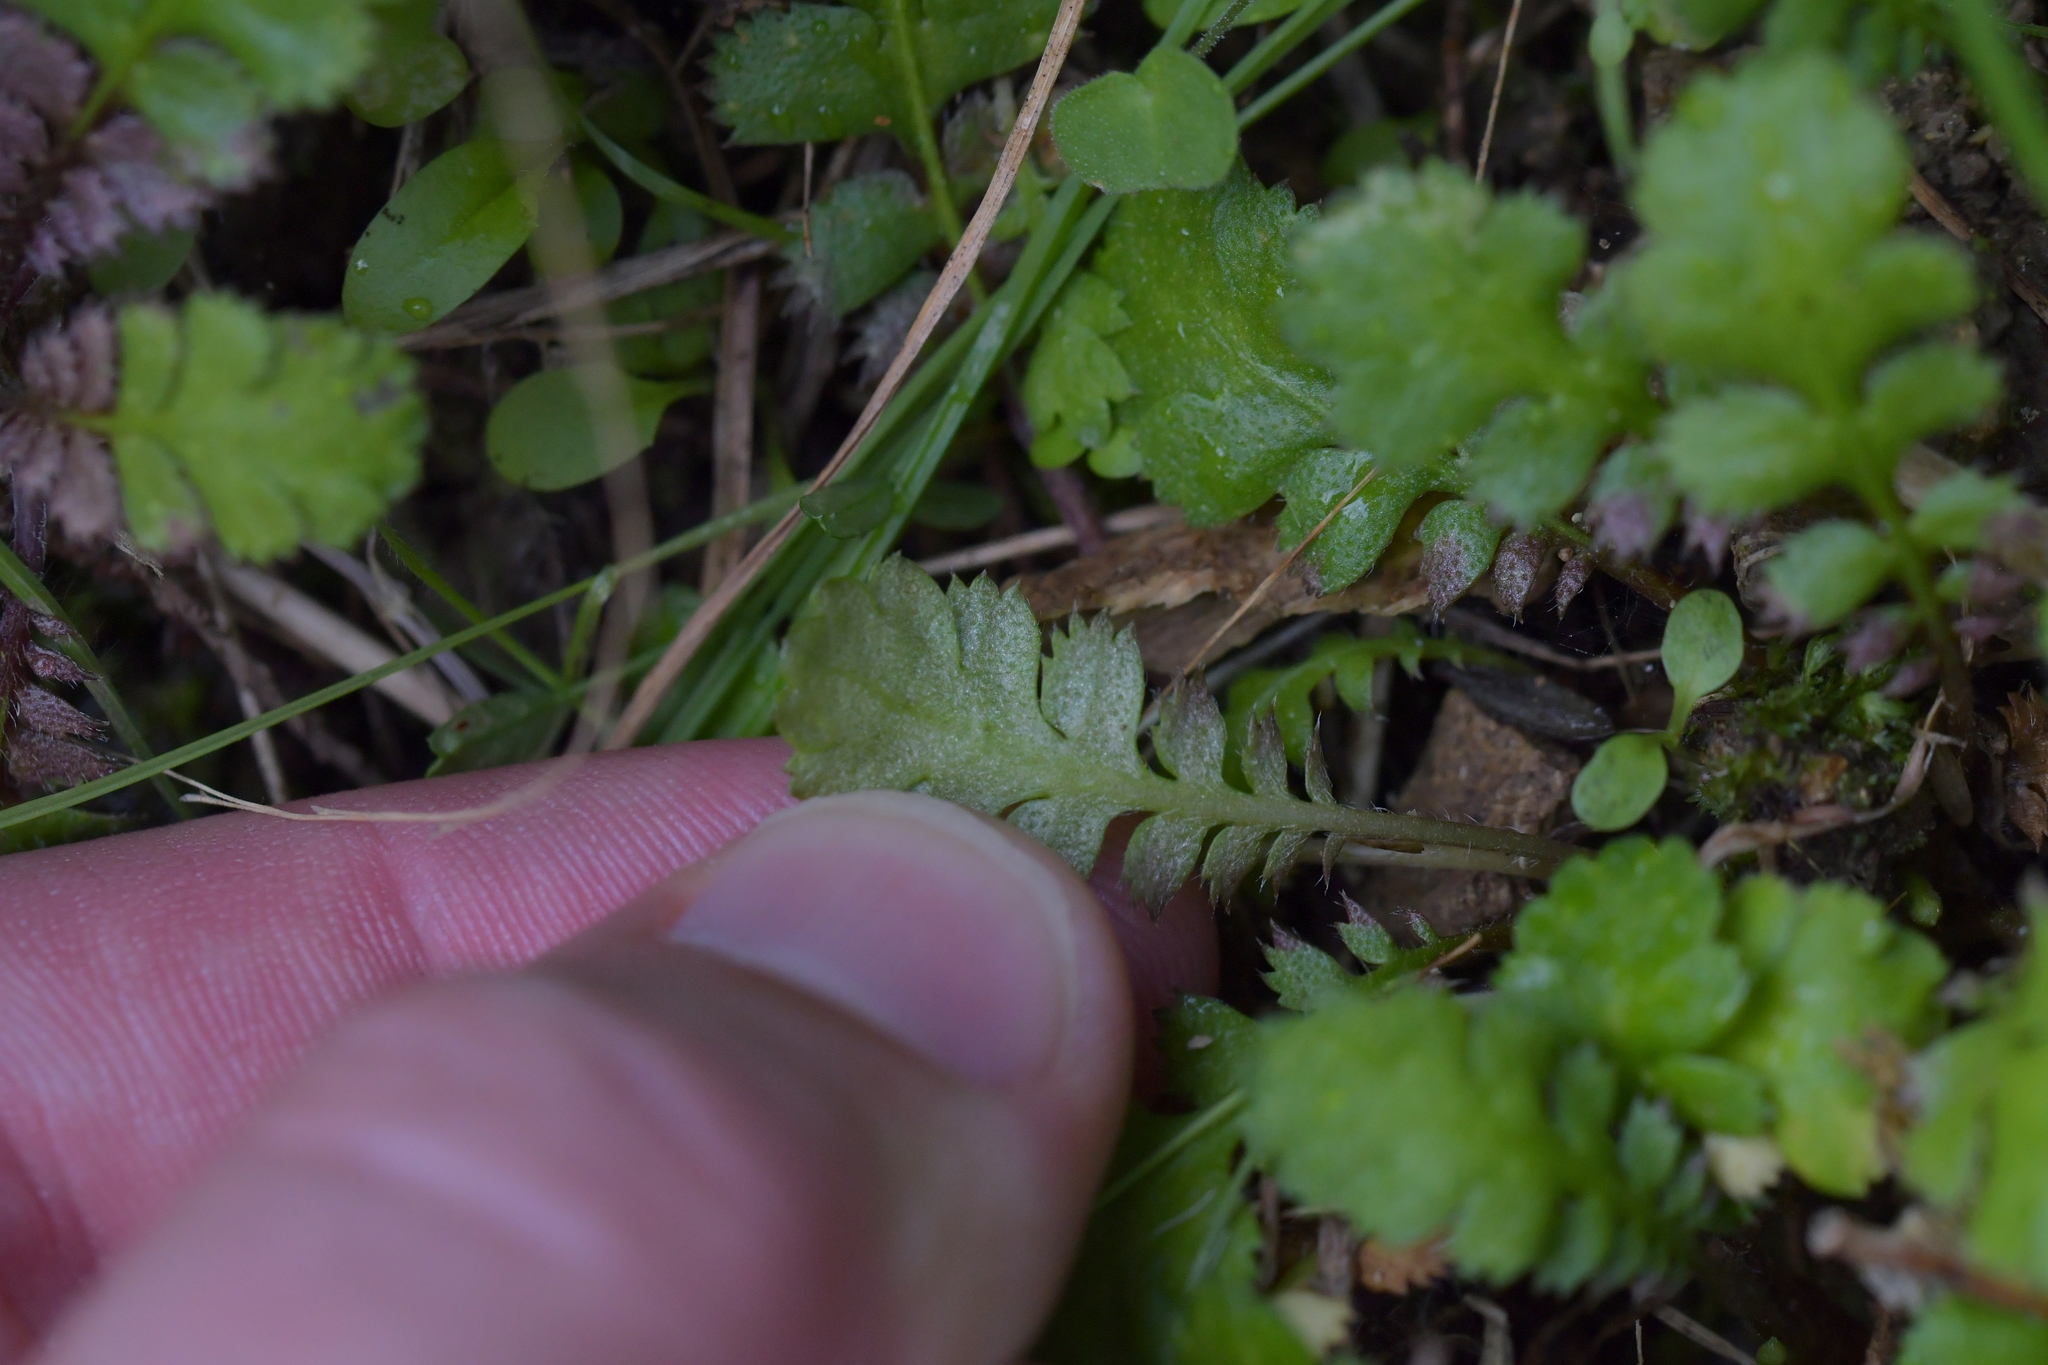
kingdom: Plantae
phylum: Tracheophyta
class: Magnoliopsida
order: Asterales
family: Asteraceae
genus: Leptinella
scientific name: Leptinella squalida
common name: New zealand brass-buttons
